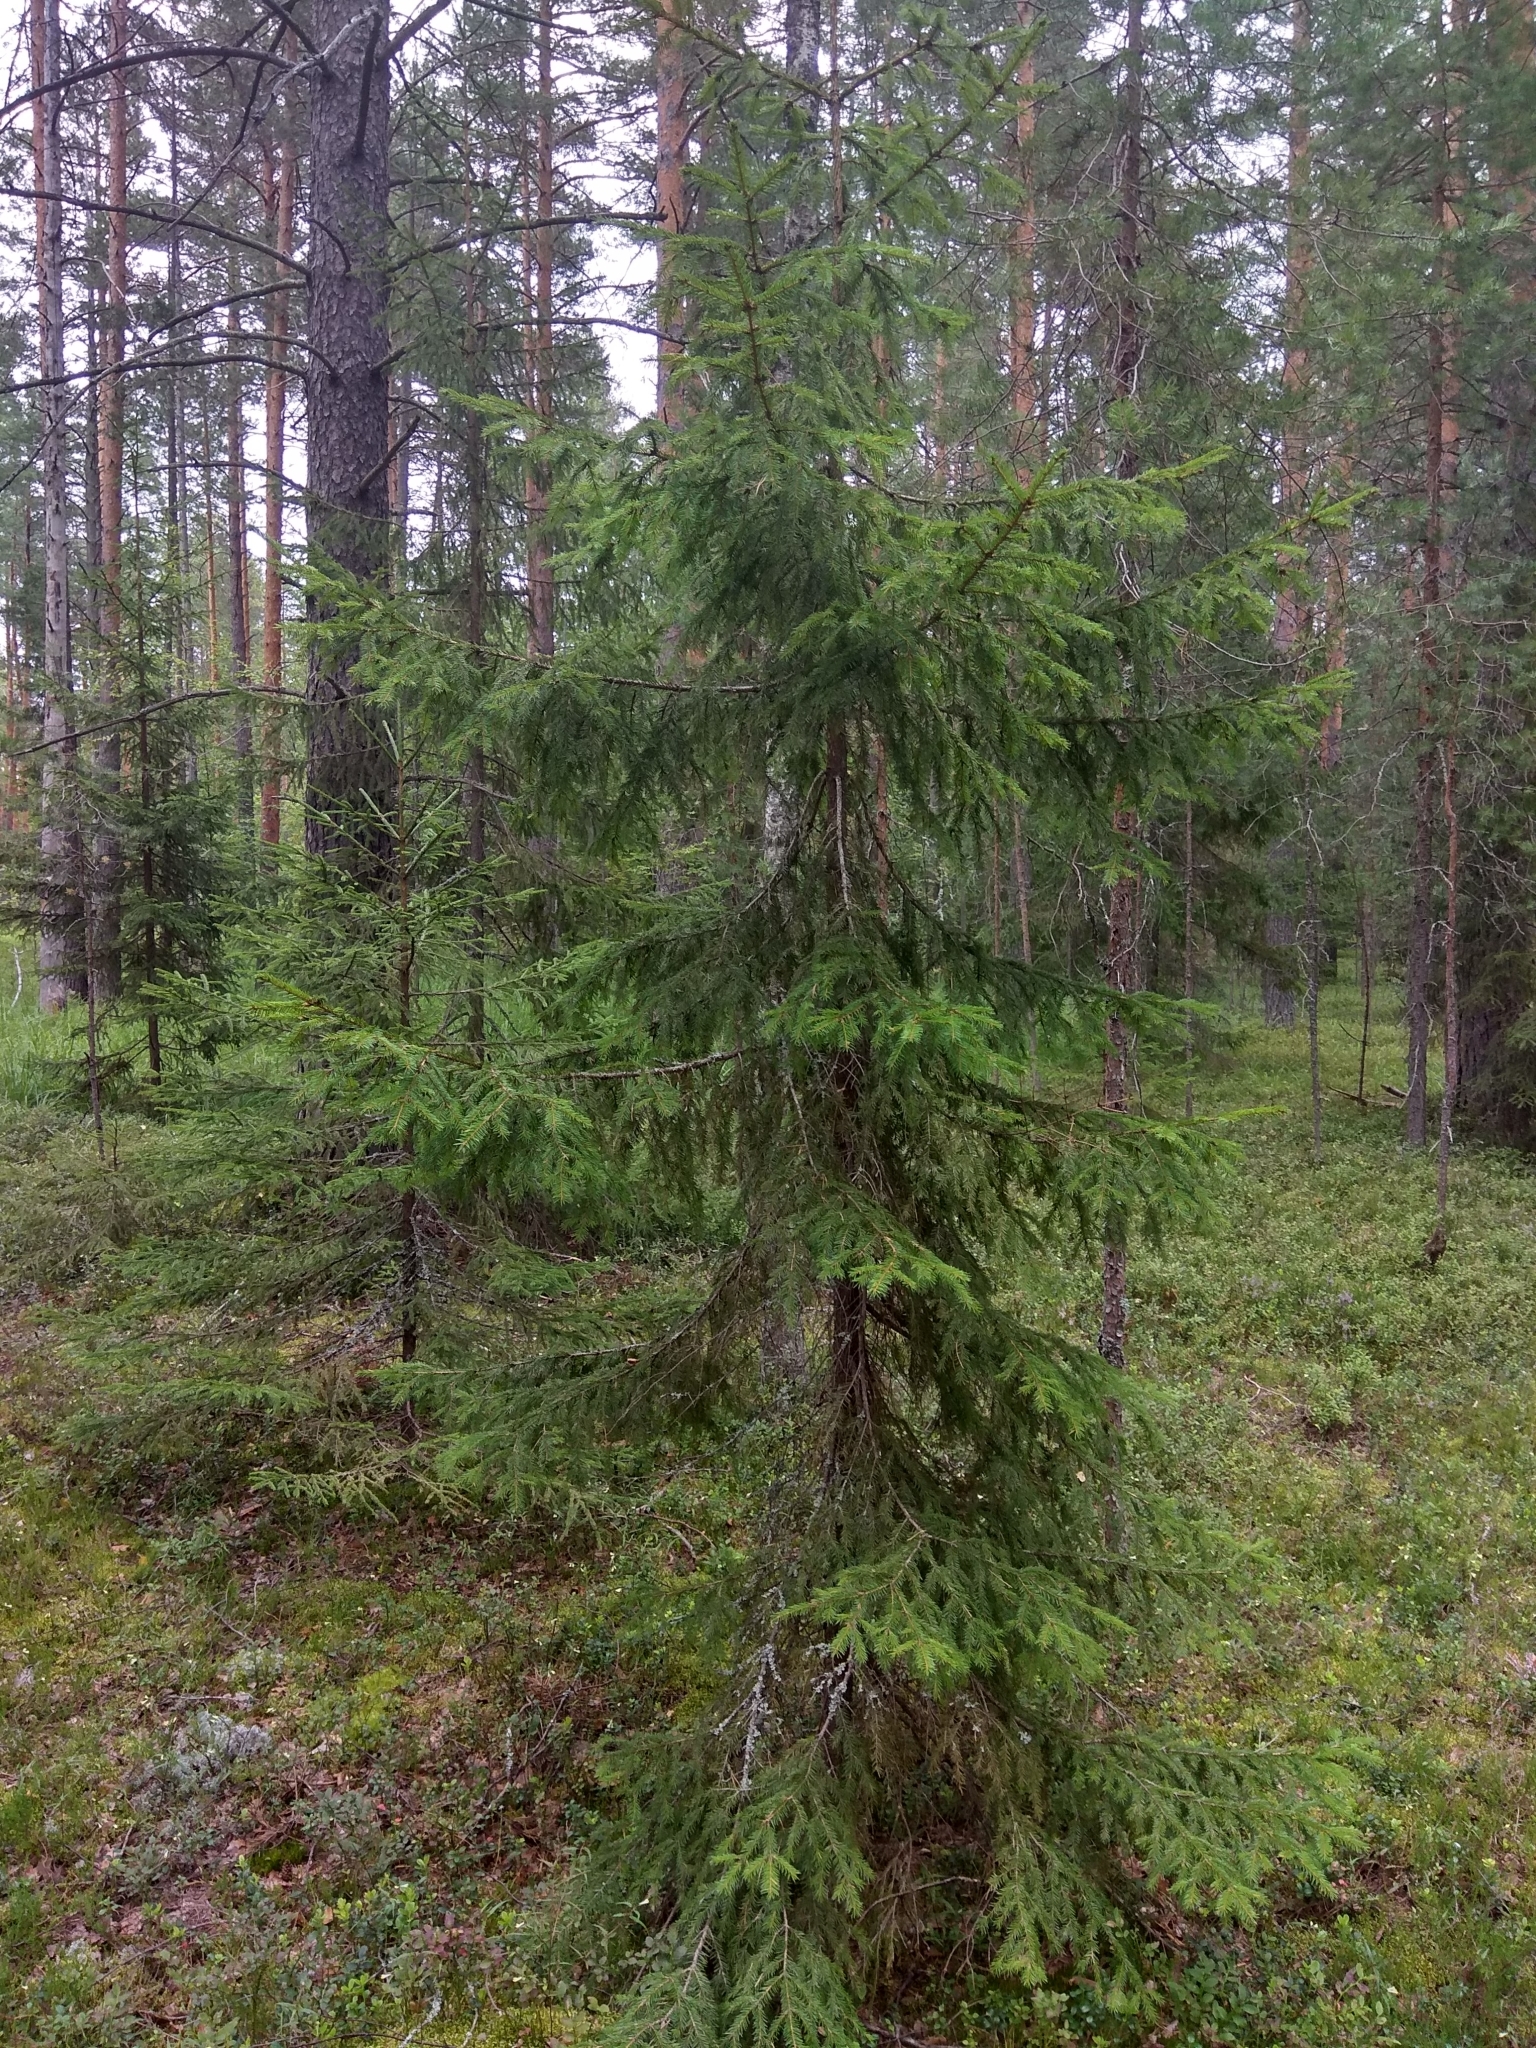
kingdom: Plantae
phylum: Tracheophyta
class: Pinopsida
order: Pinales
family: Pinaceae
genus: Picea
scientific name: Picea abies
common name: Norway spruce
